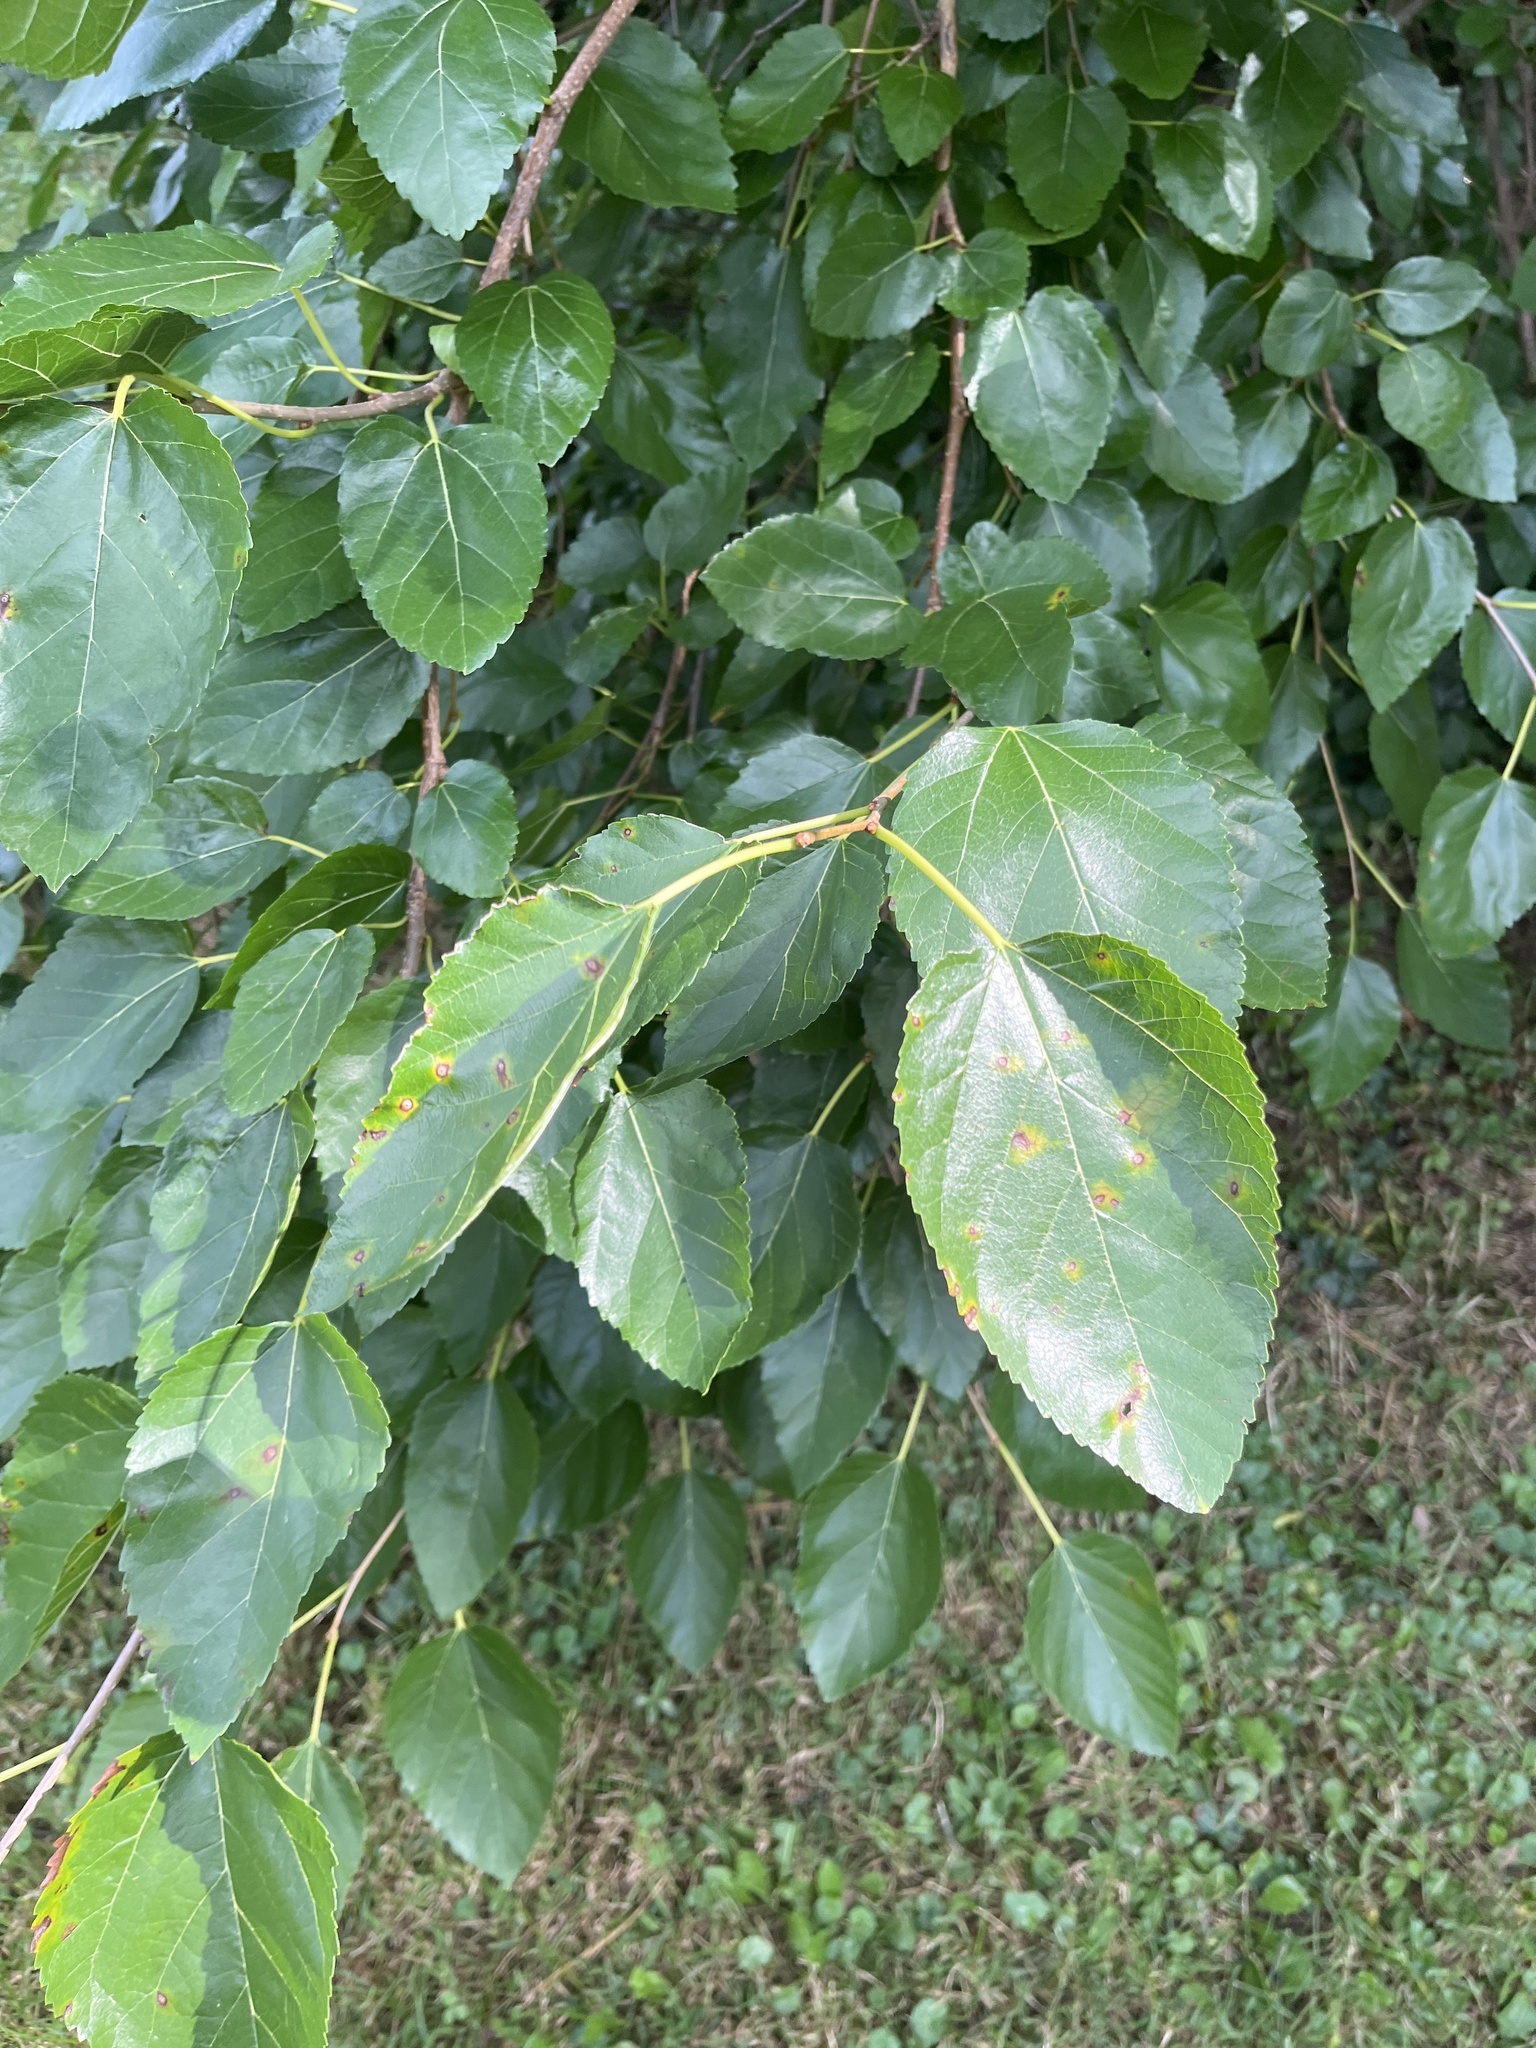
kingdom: Plantae
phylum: Tracheophyta
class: Magnoliopsida
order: Rosales
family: Moraceae
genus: Morus
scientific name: Morus alba
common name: White mulberry
